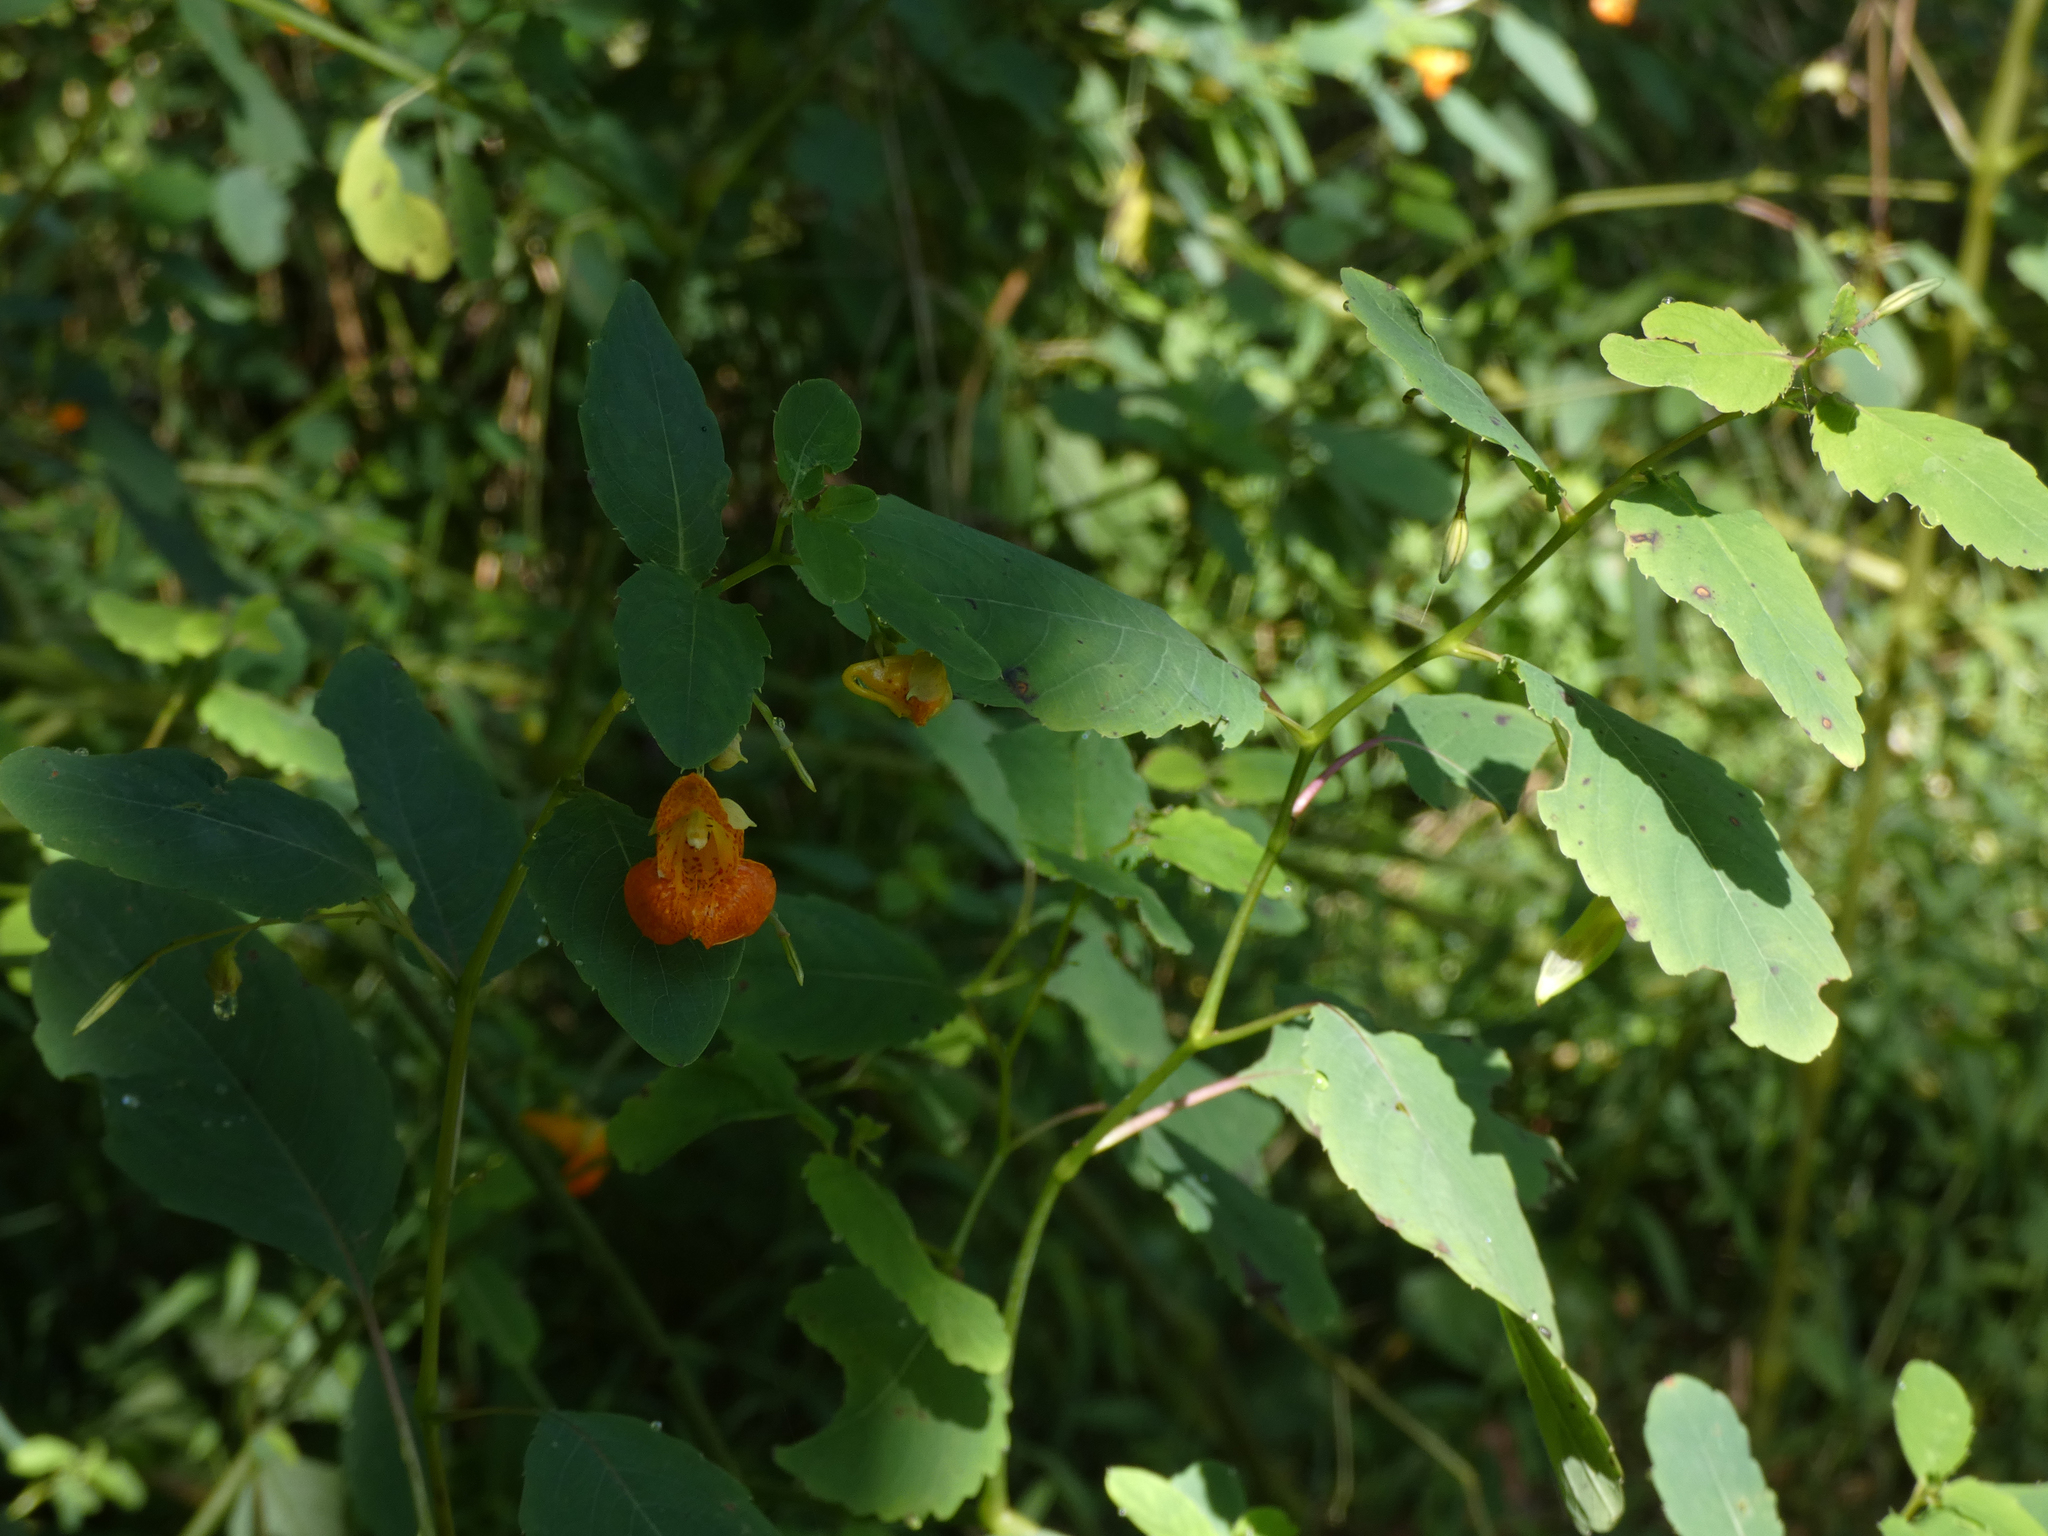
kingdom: Plantae
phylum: Tracheophyta
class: Magnoliopsida
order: Ericales
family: Balsaminaceae
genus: Impatiens
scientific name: Impatiens capensis
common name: Orange balsam
